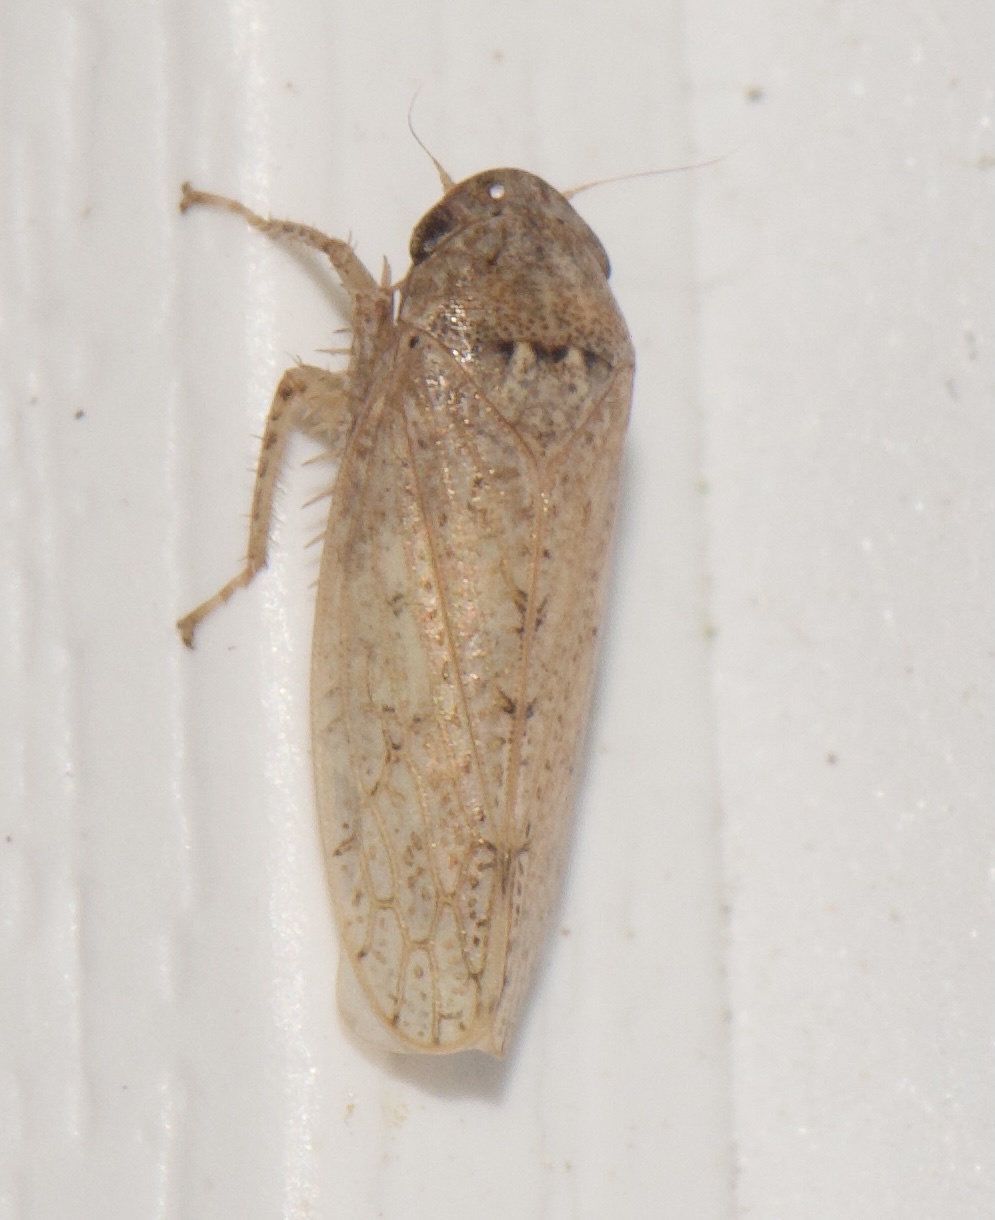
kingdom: Animalia
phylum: Arthropoda
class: Insecta
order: Hemiptera
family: Cicadellidae
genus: Curtara
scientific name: Curtara insularis
